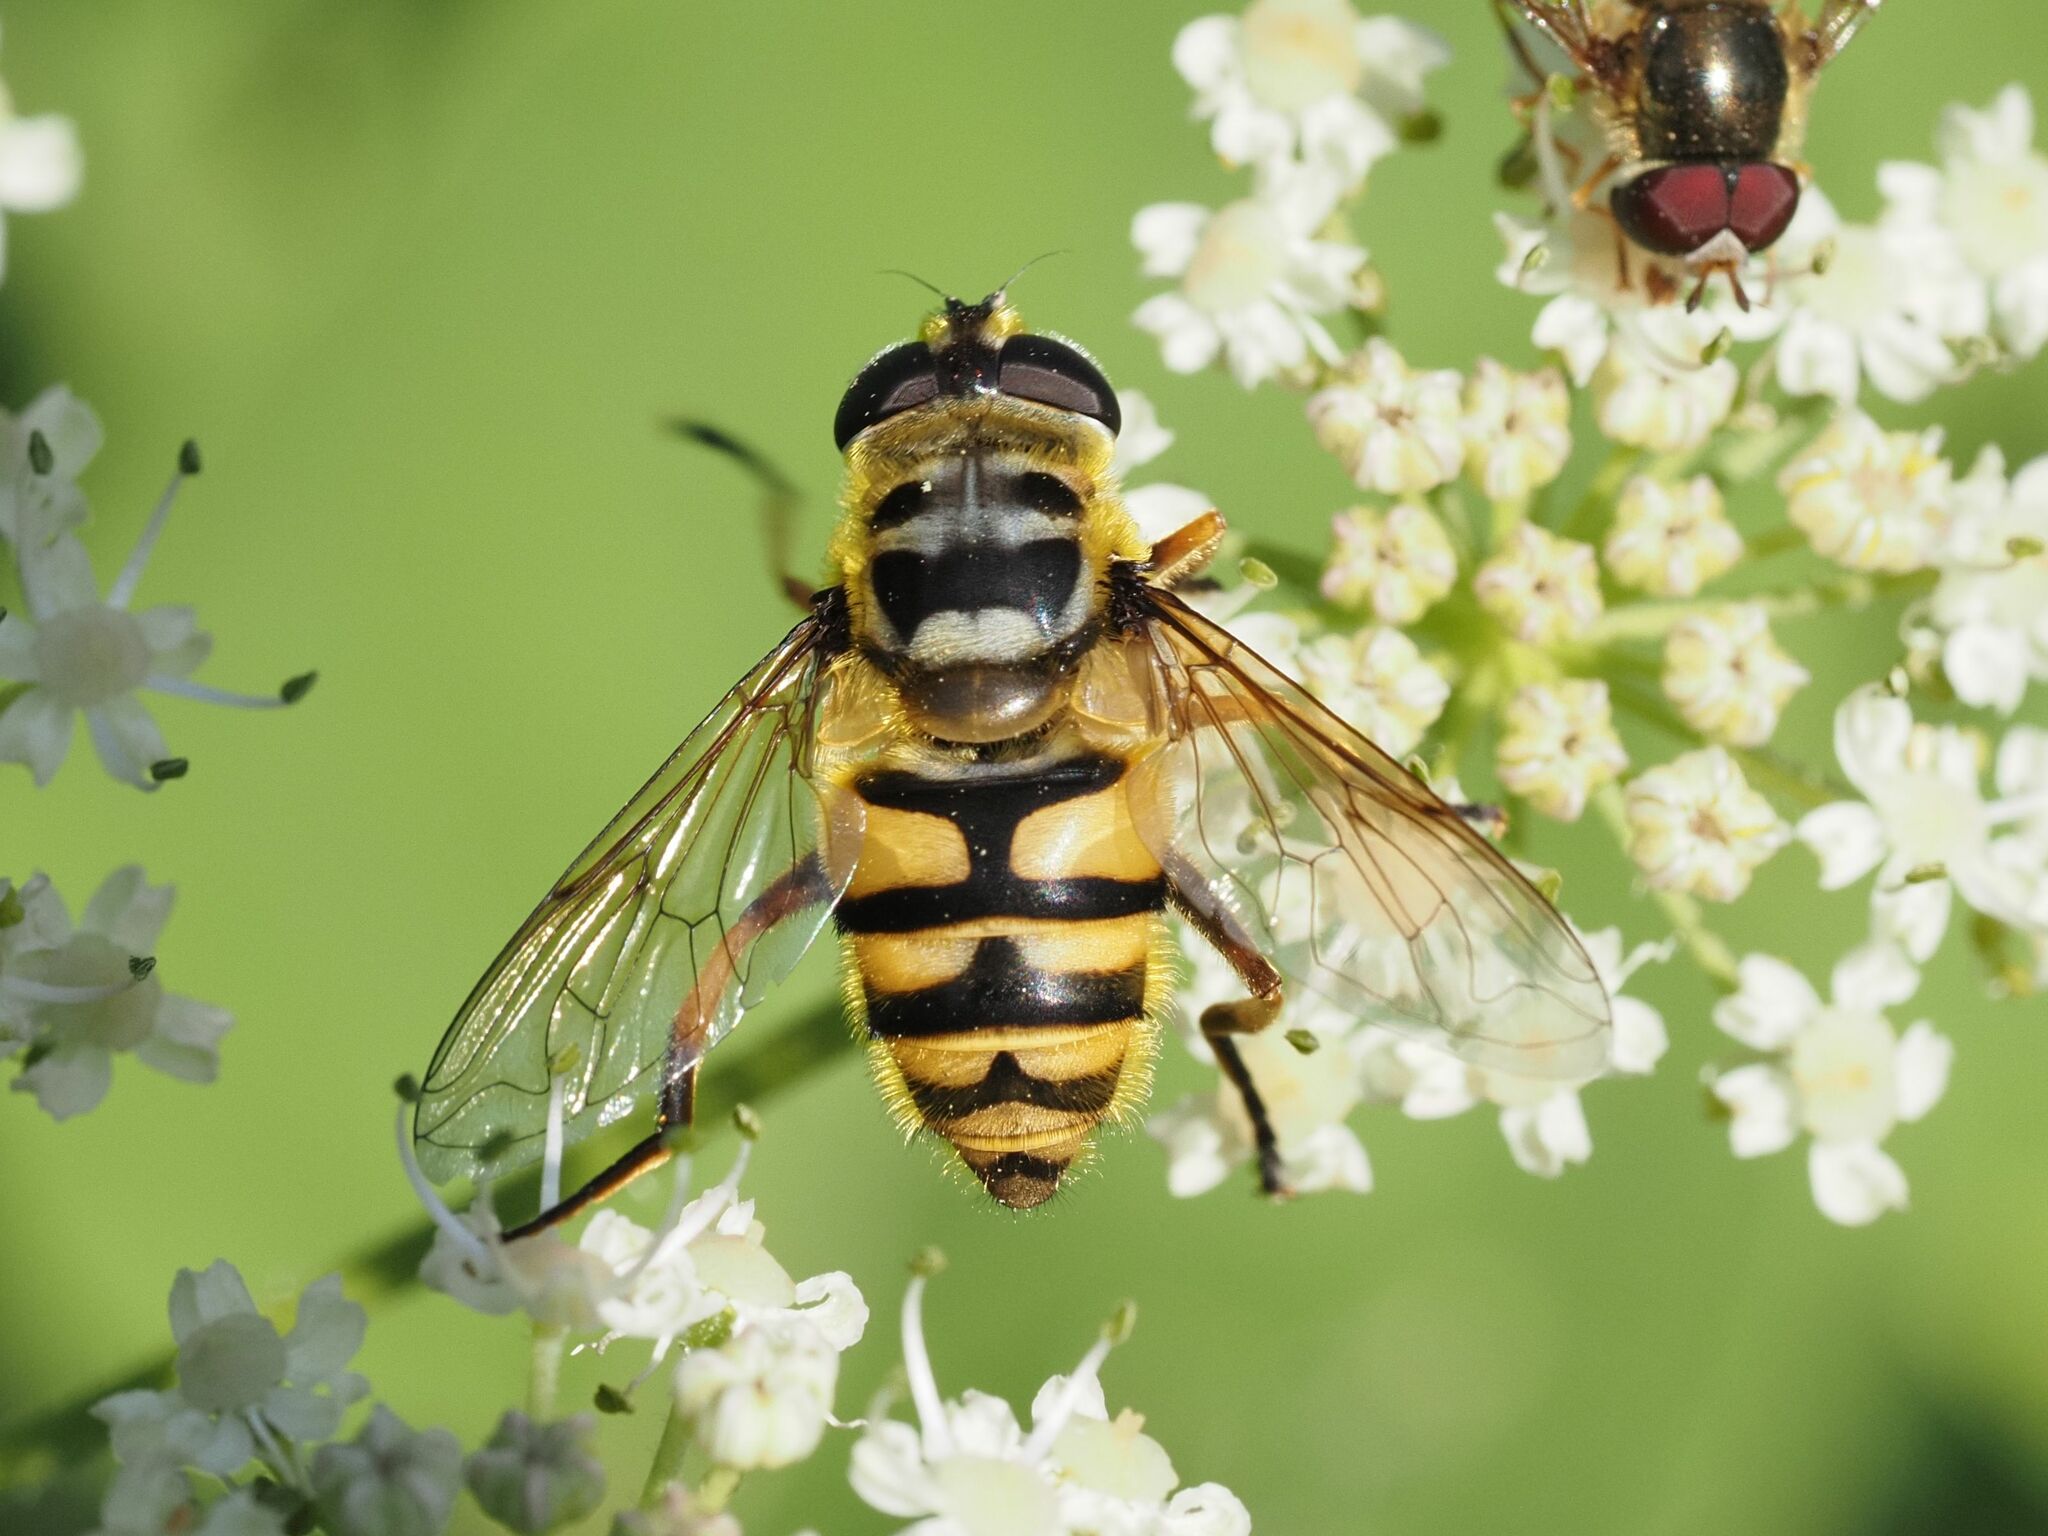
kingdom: Animalia
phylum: Arthropoda
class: Insecta
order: Diptera
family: Syrphidae
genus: Myathropa
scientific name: Myathropa florea
